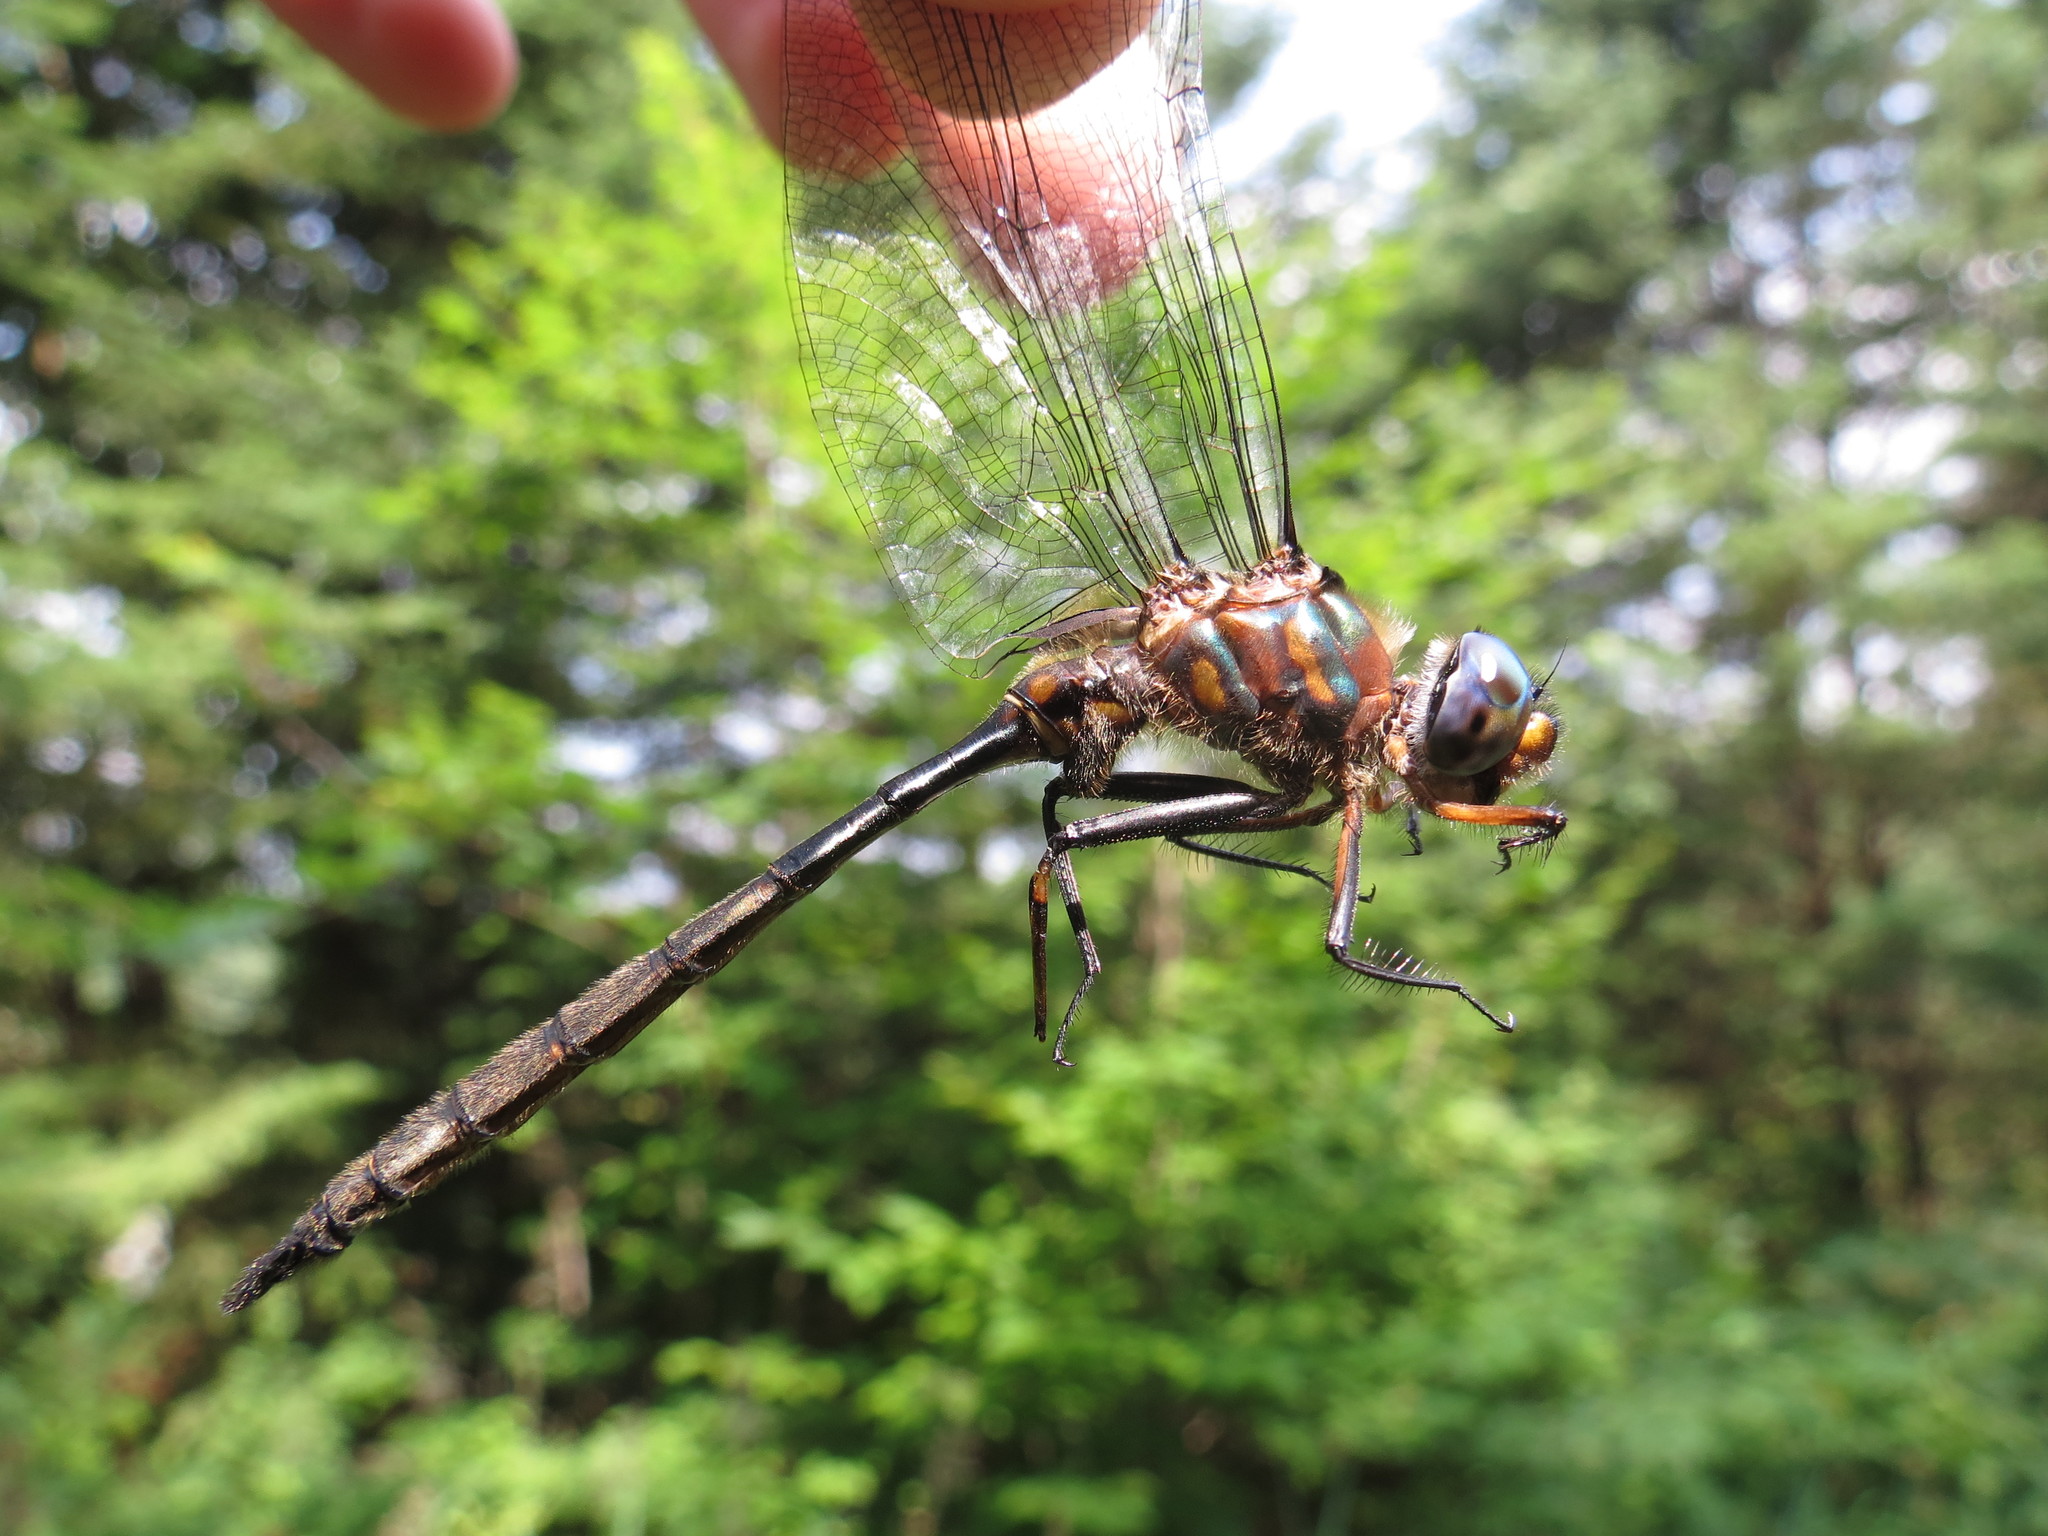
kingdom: Animalia
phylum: Arthropoda
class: Insecta
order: Odonata
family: Corduliidae
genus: Somatochlora
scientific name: Somatochlora williamsoni
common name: Williamson's emerald
